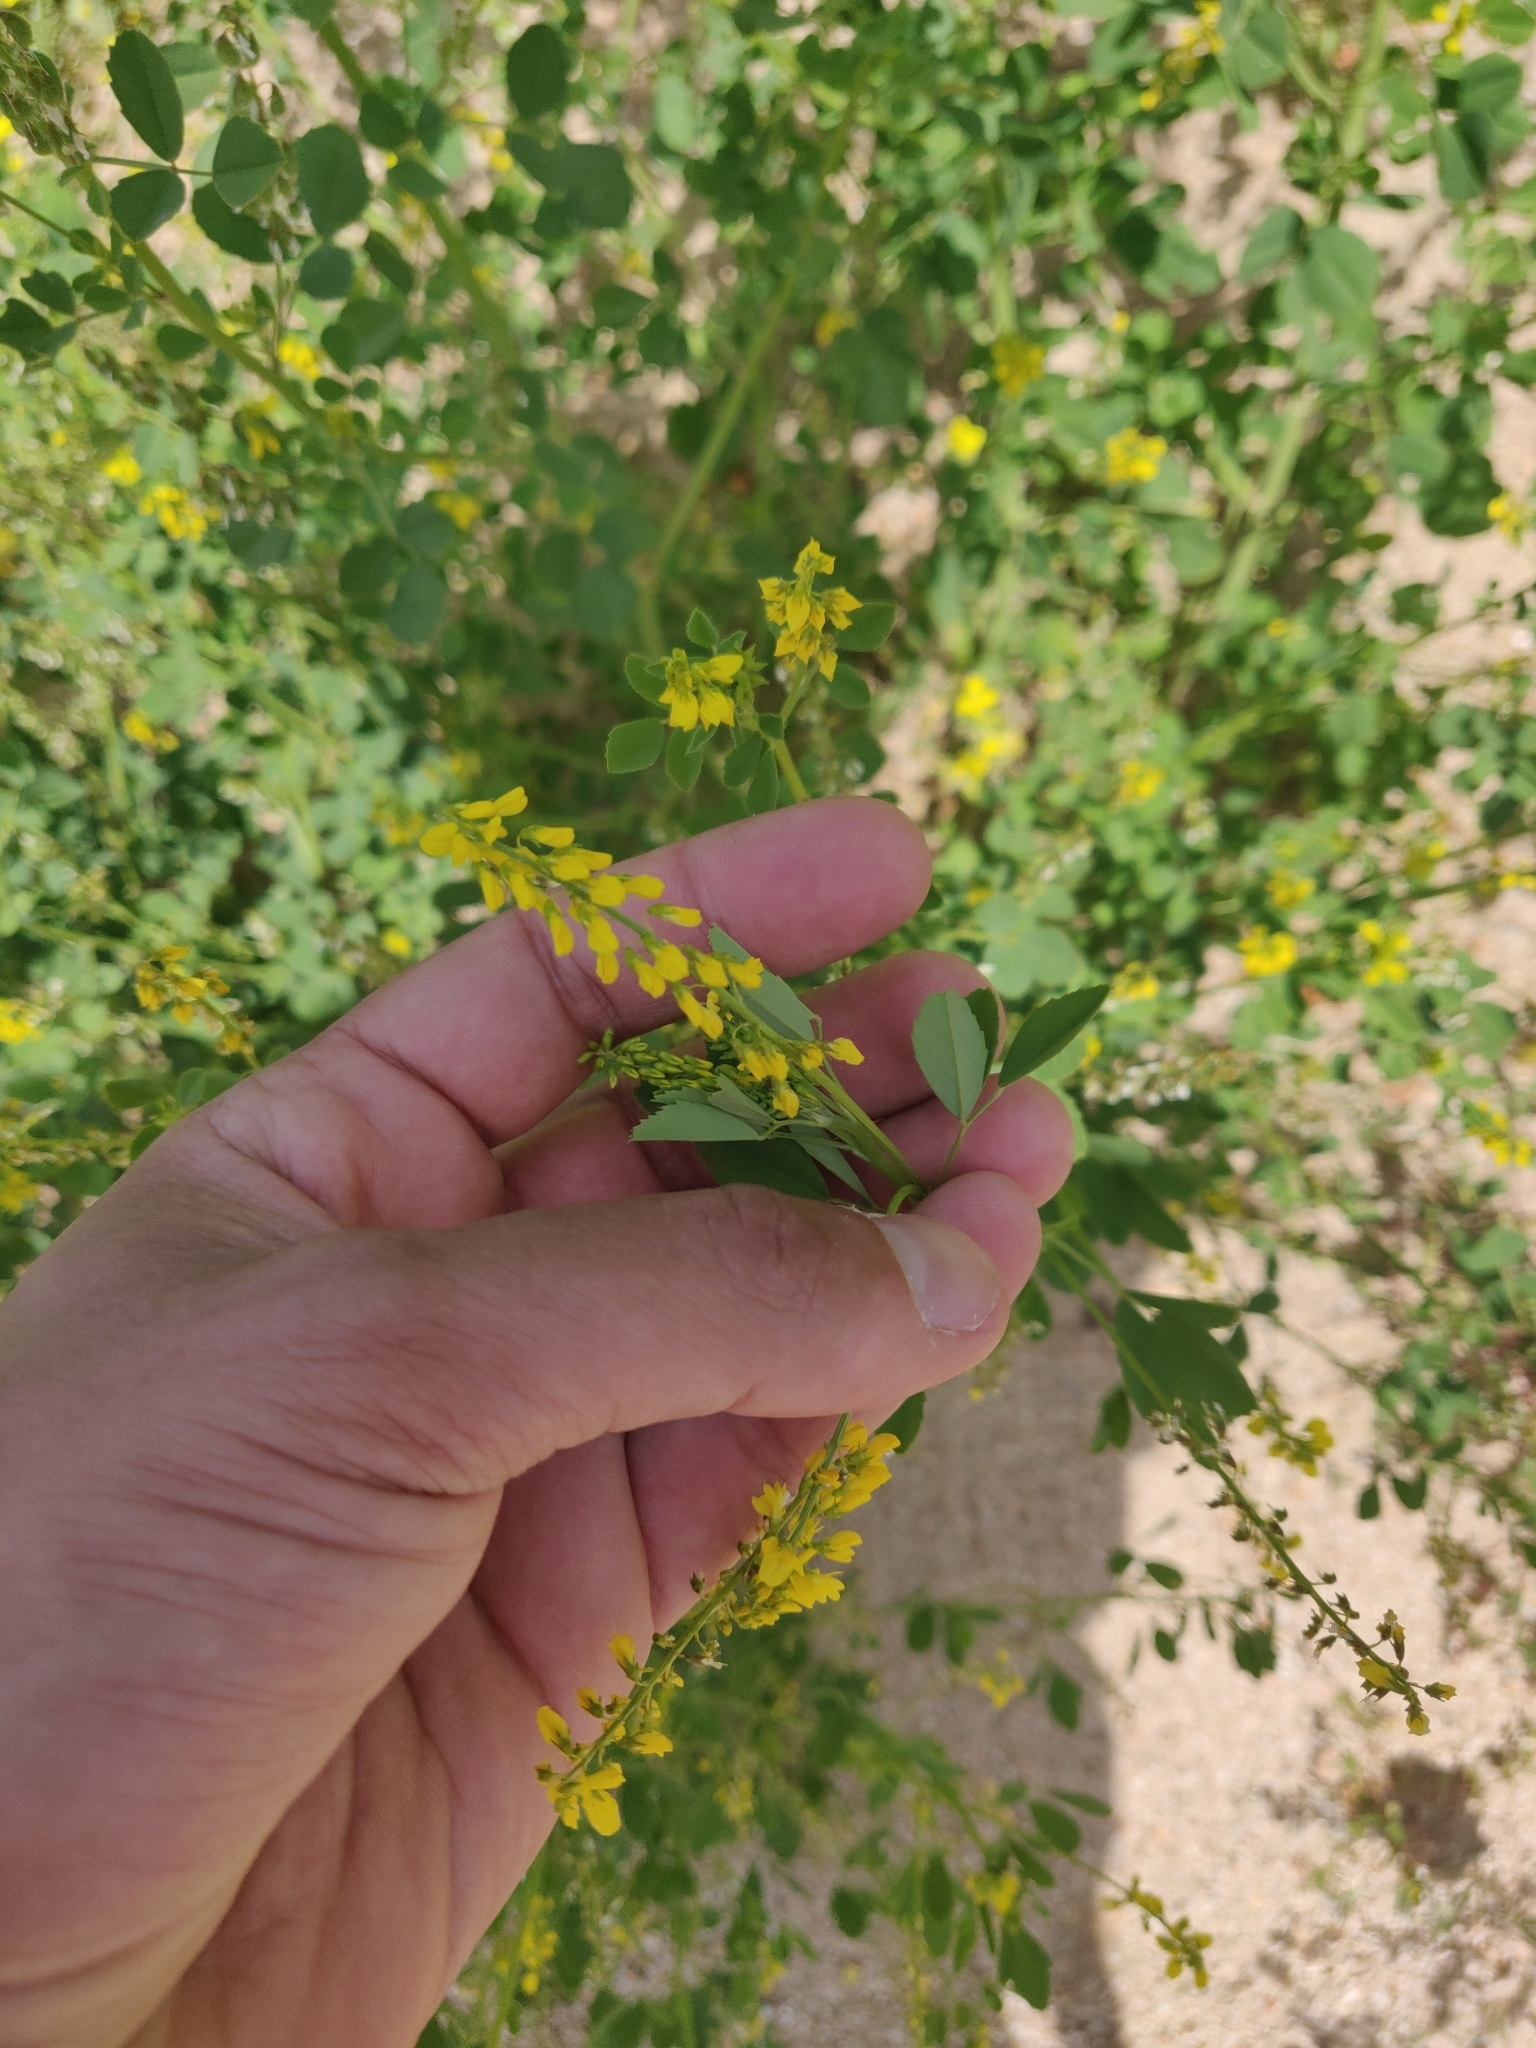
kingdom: Plantae
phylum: Tracheophyta
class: Magnoliopsida
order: Fabales
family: Fabaceae
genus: Melilotus
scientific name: Melilotus officinalis
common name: Sweetclover
